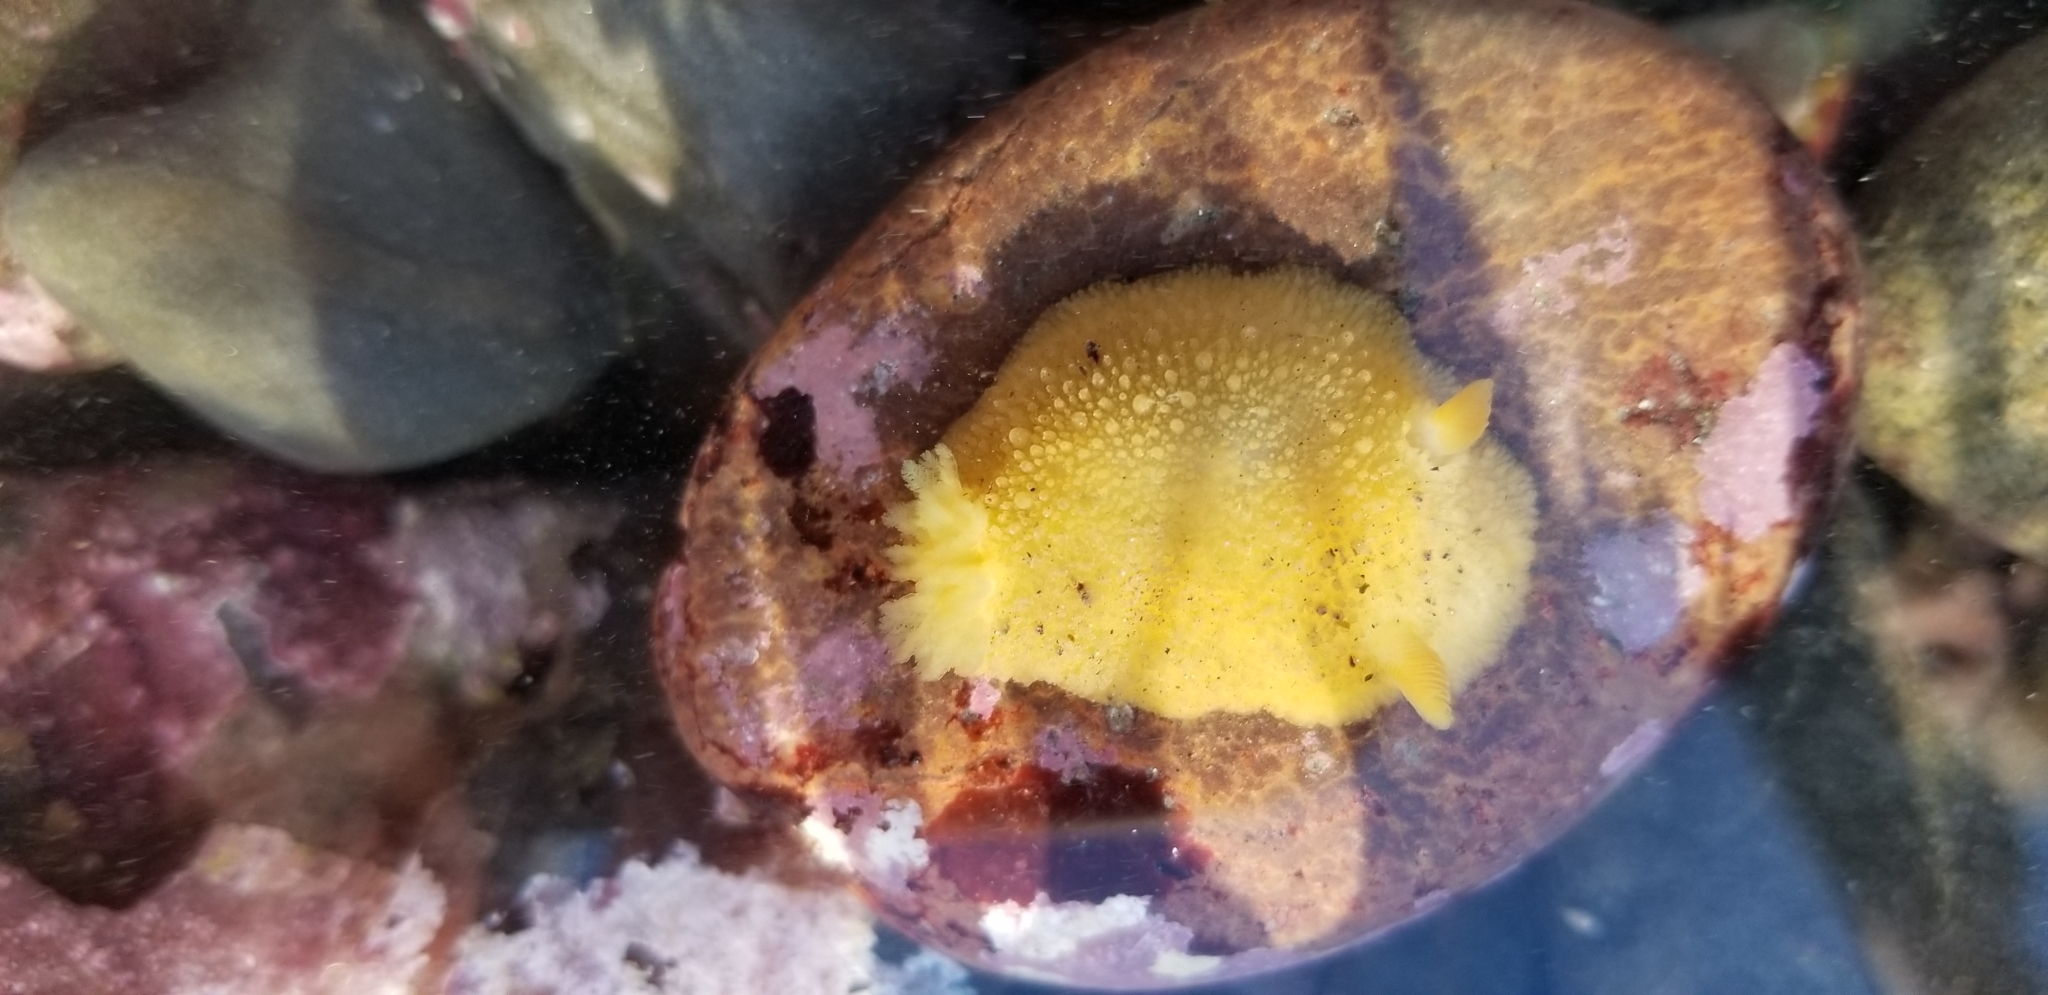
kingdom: Animalia
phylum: Mollusca
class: Gastropoda
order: Nudibranchia
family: Dorididae
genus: Doris
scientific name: Doris montereyensis
